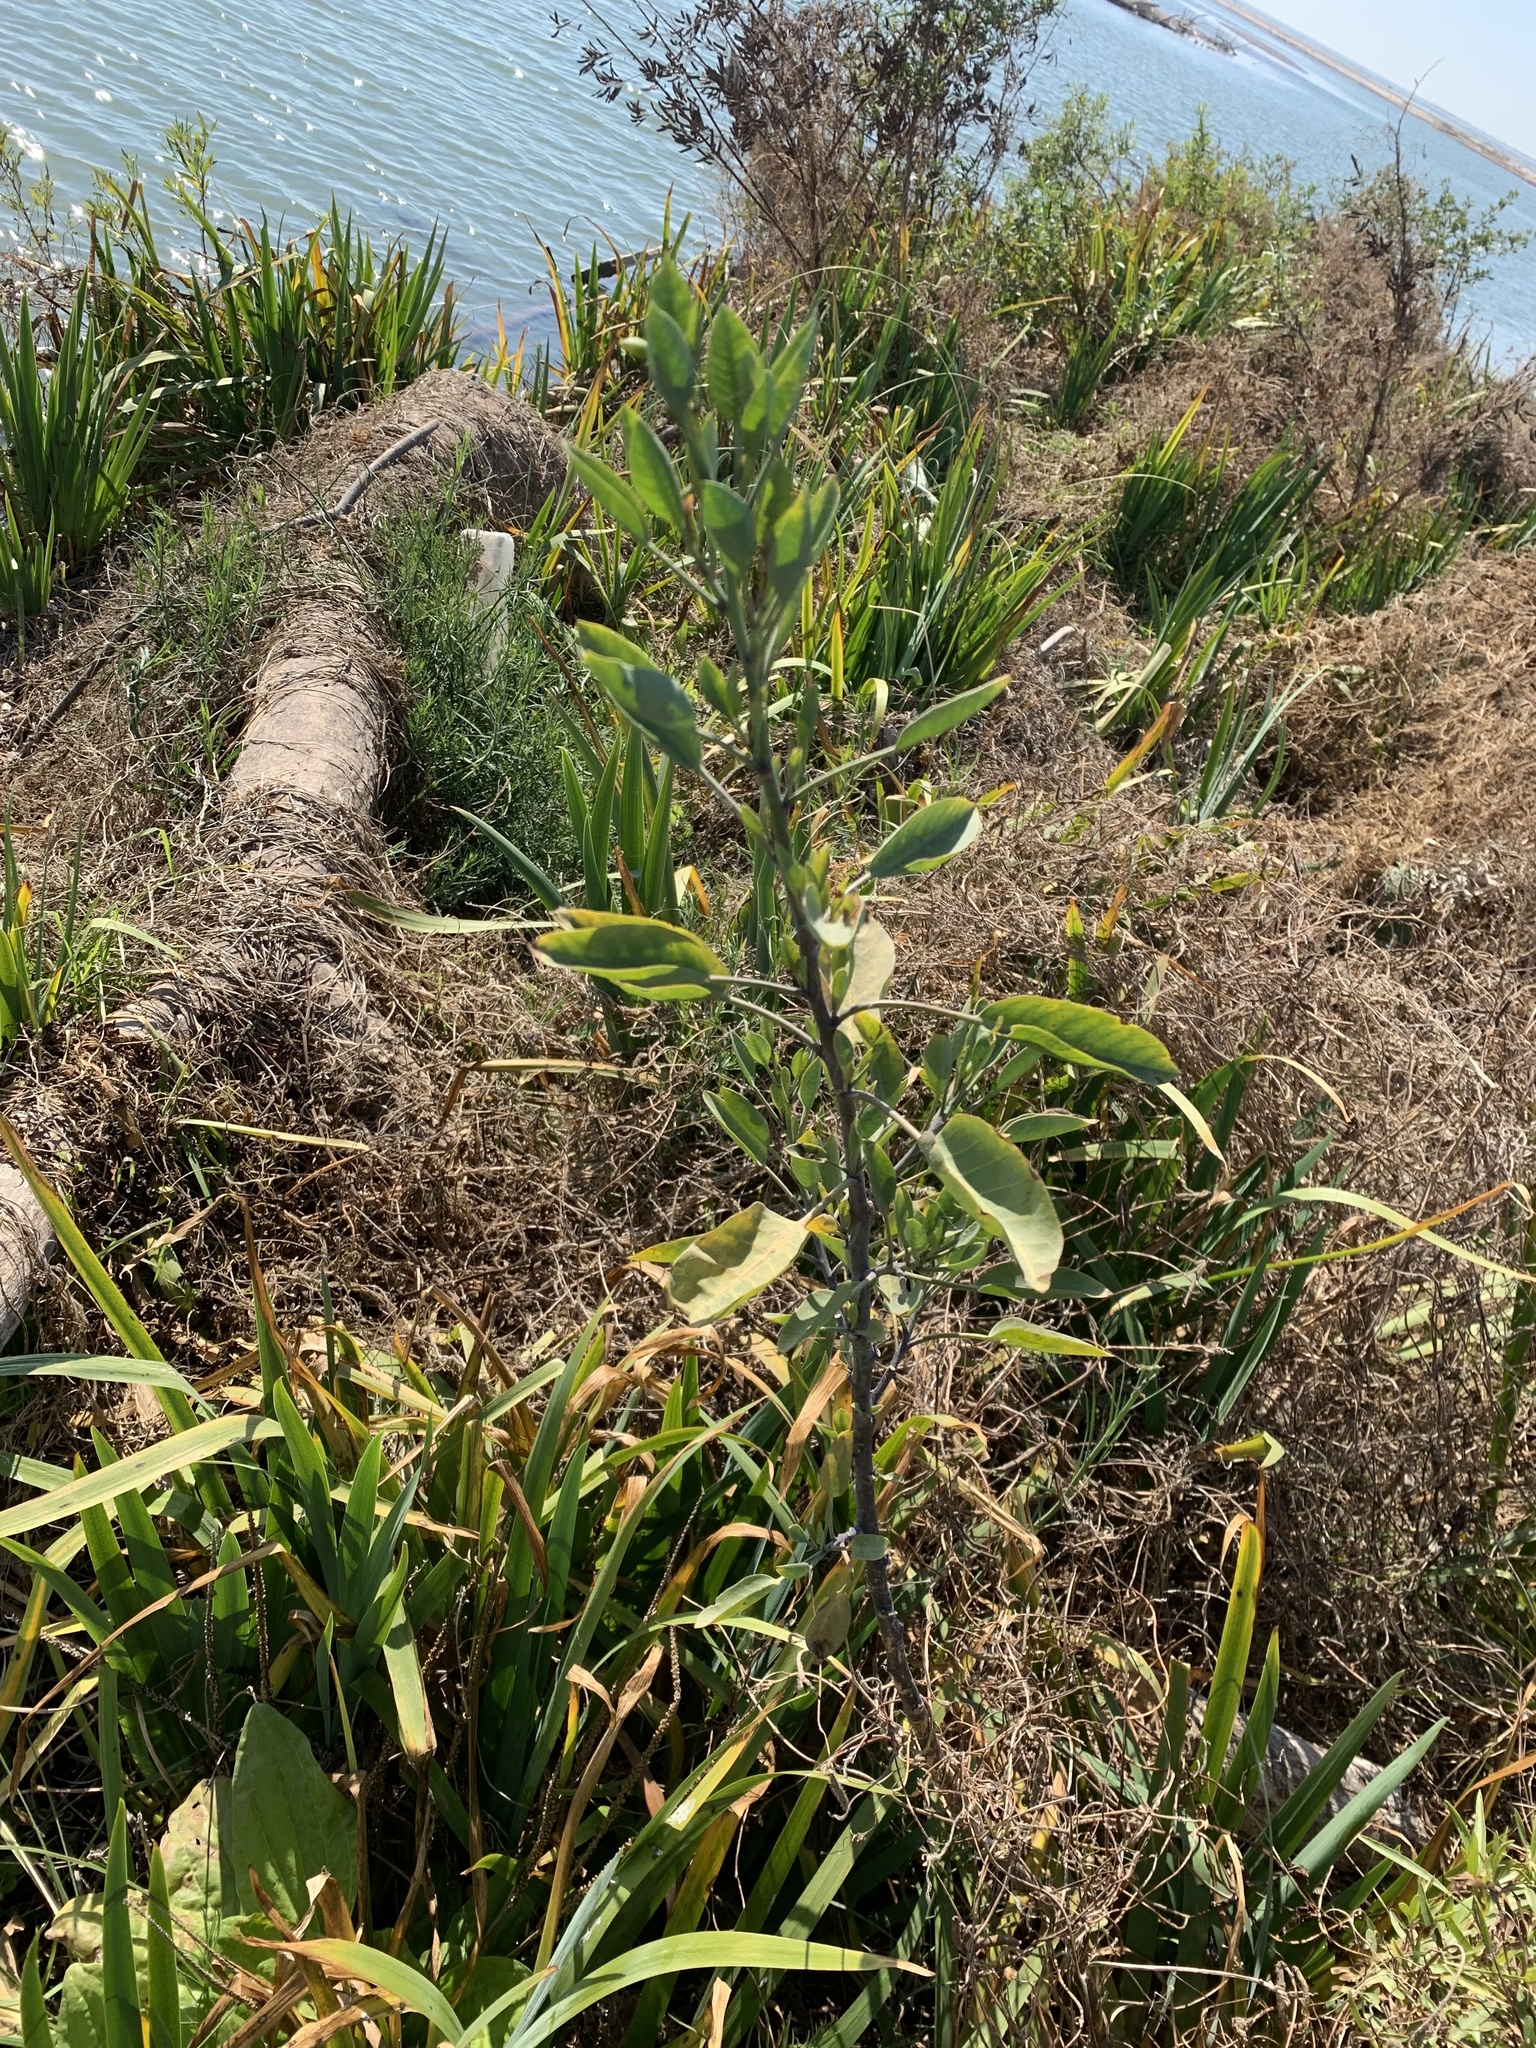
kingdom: Plantae
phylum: Tracheophyta
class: Magnoliopsida
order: Solanales
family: Solanaceae
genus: Nicotiana
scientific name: Nicotiana glauca
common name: Tree tobacco
